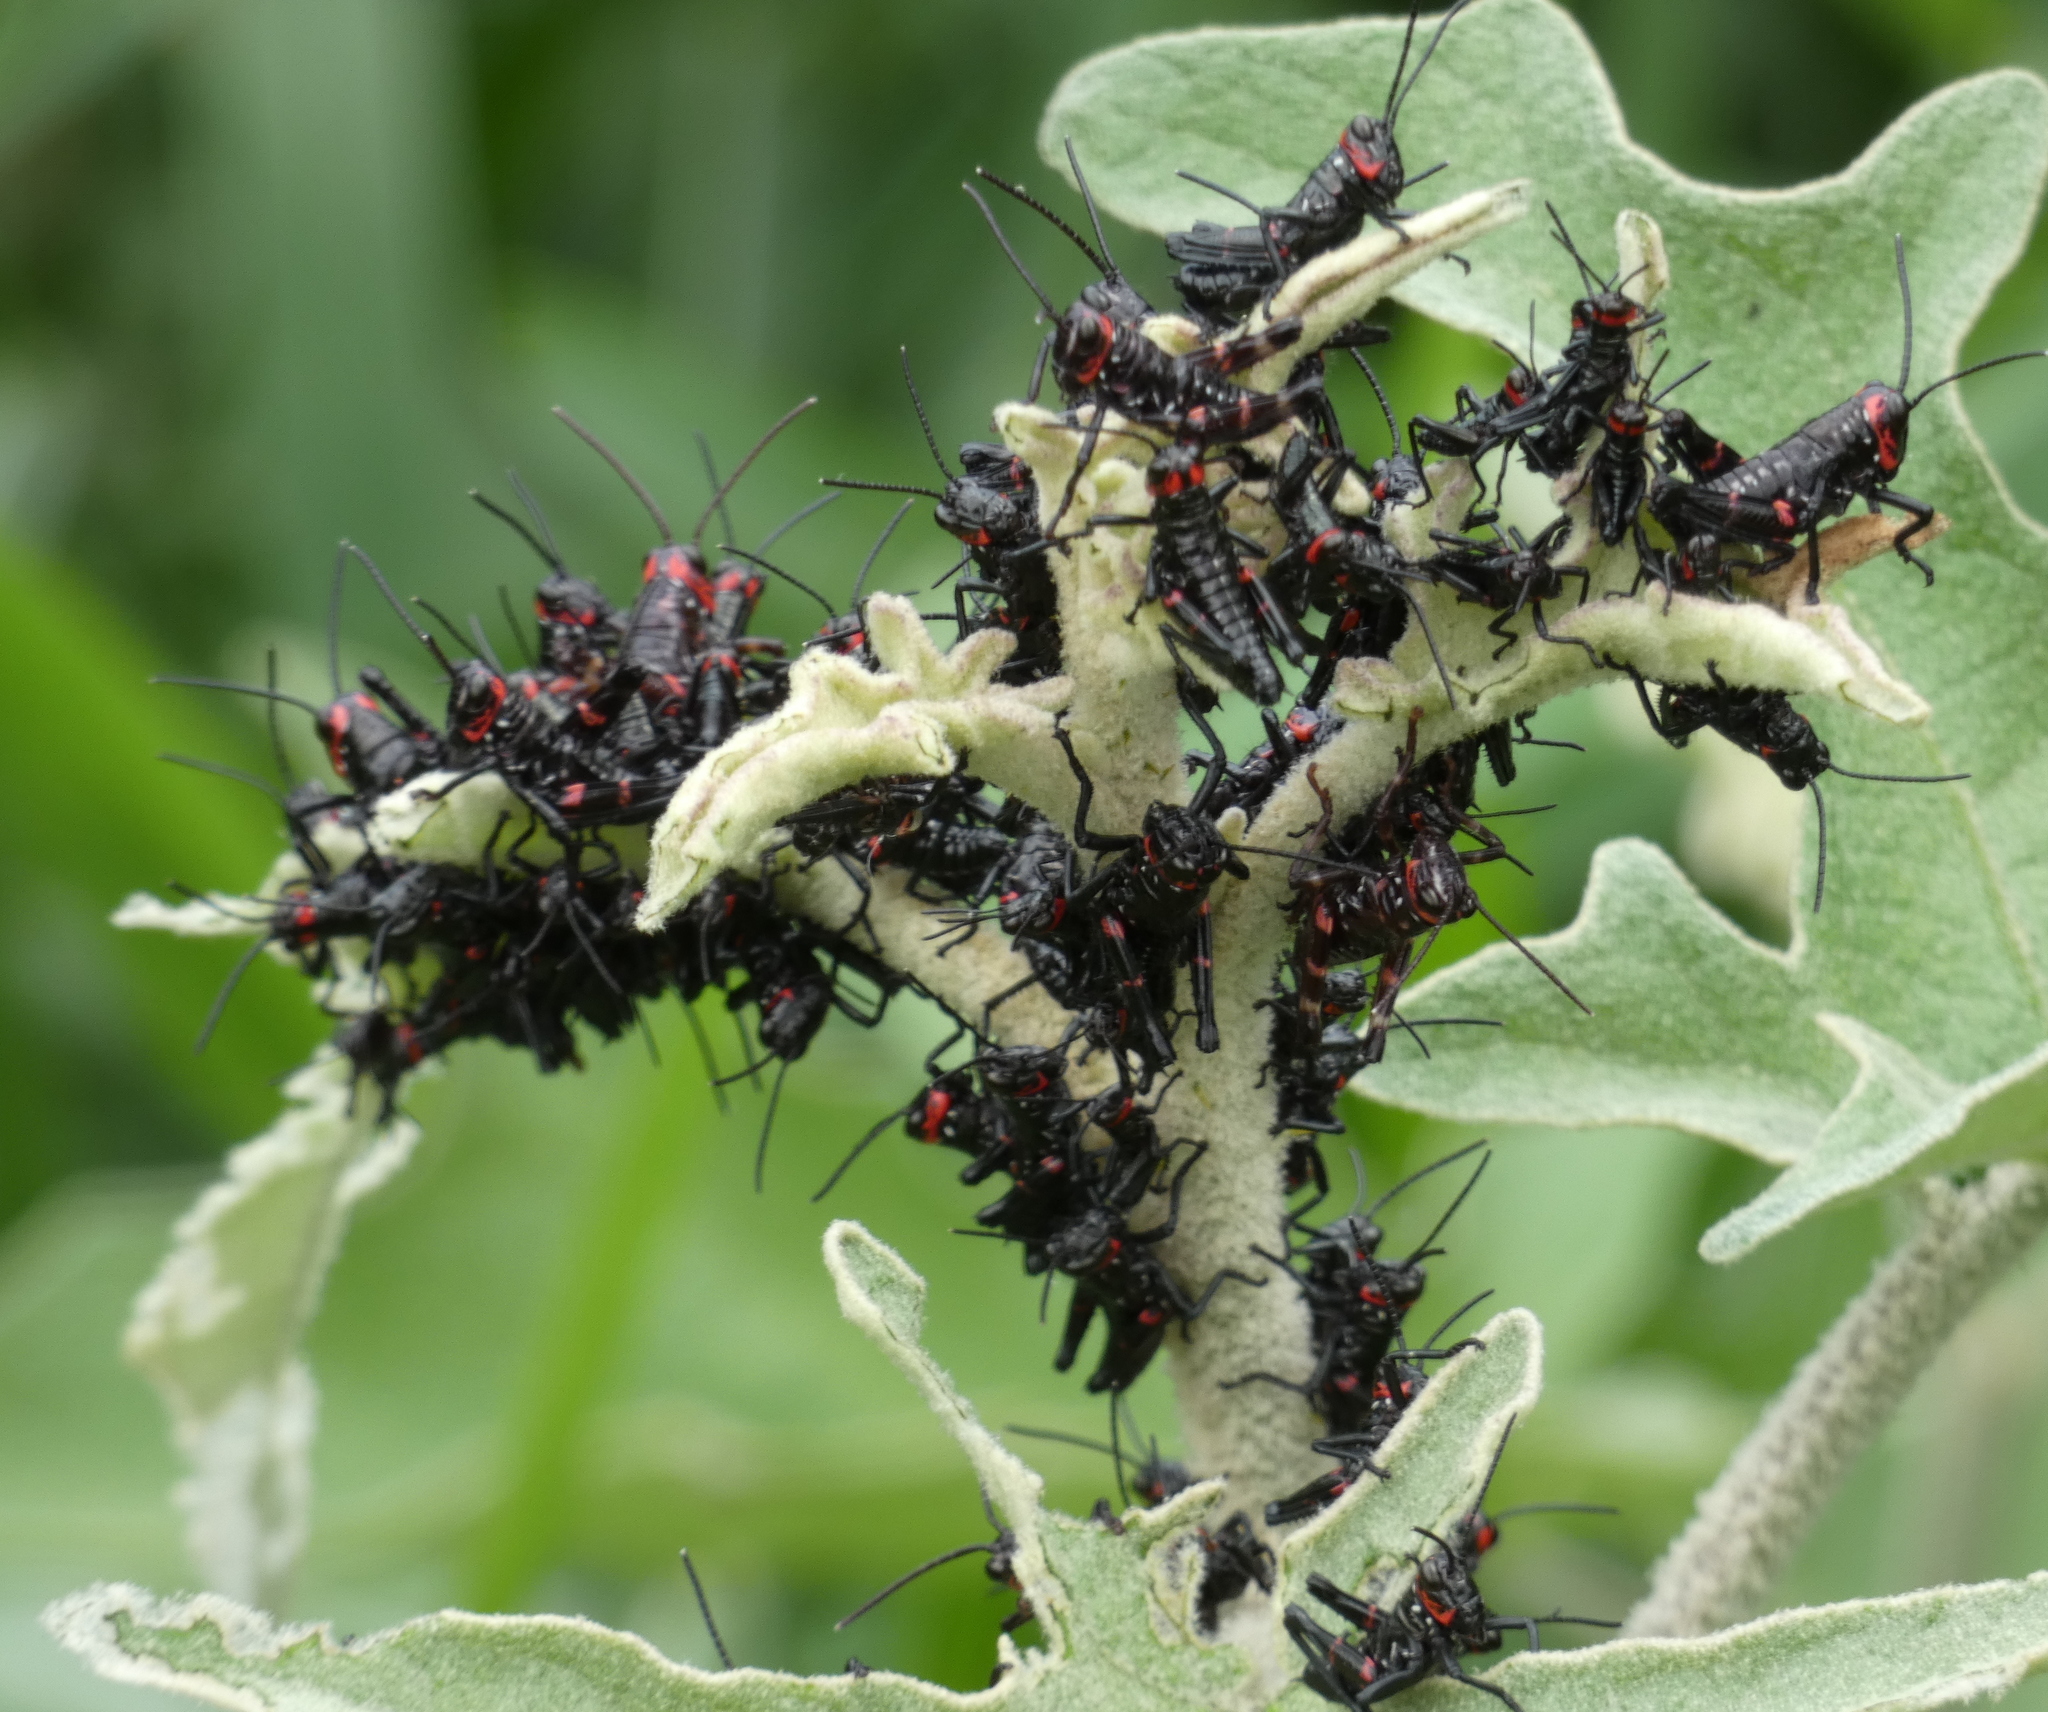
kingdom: Animalia
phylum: Arthropoda
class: Insecta
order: Orthoptera
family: Romaleidae
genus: Chromacris
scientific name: Chromacris speciosa
